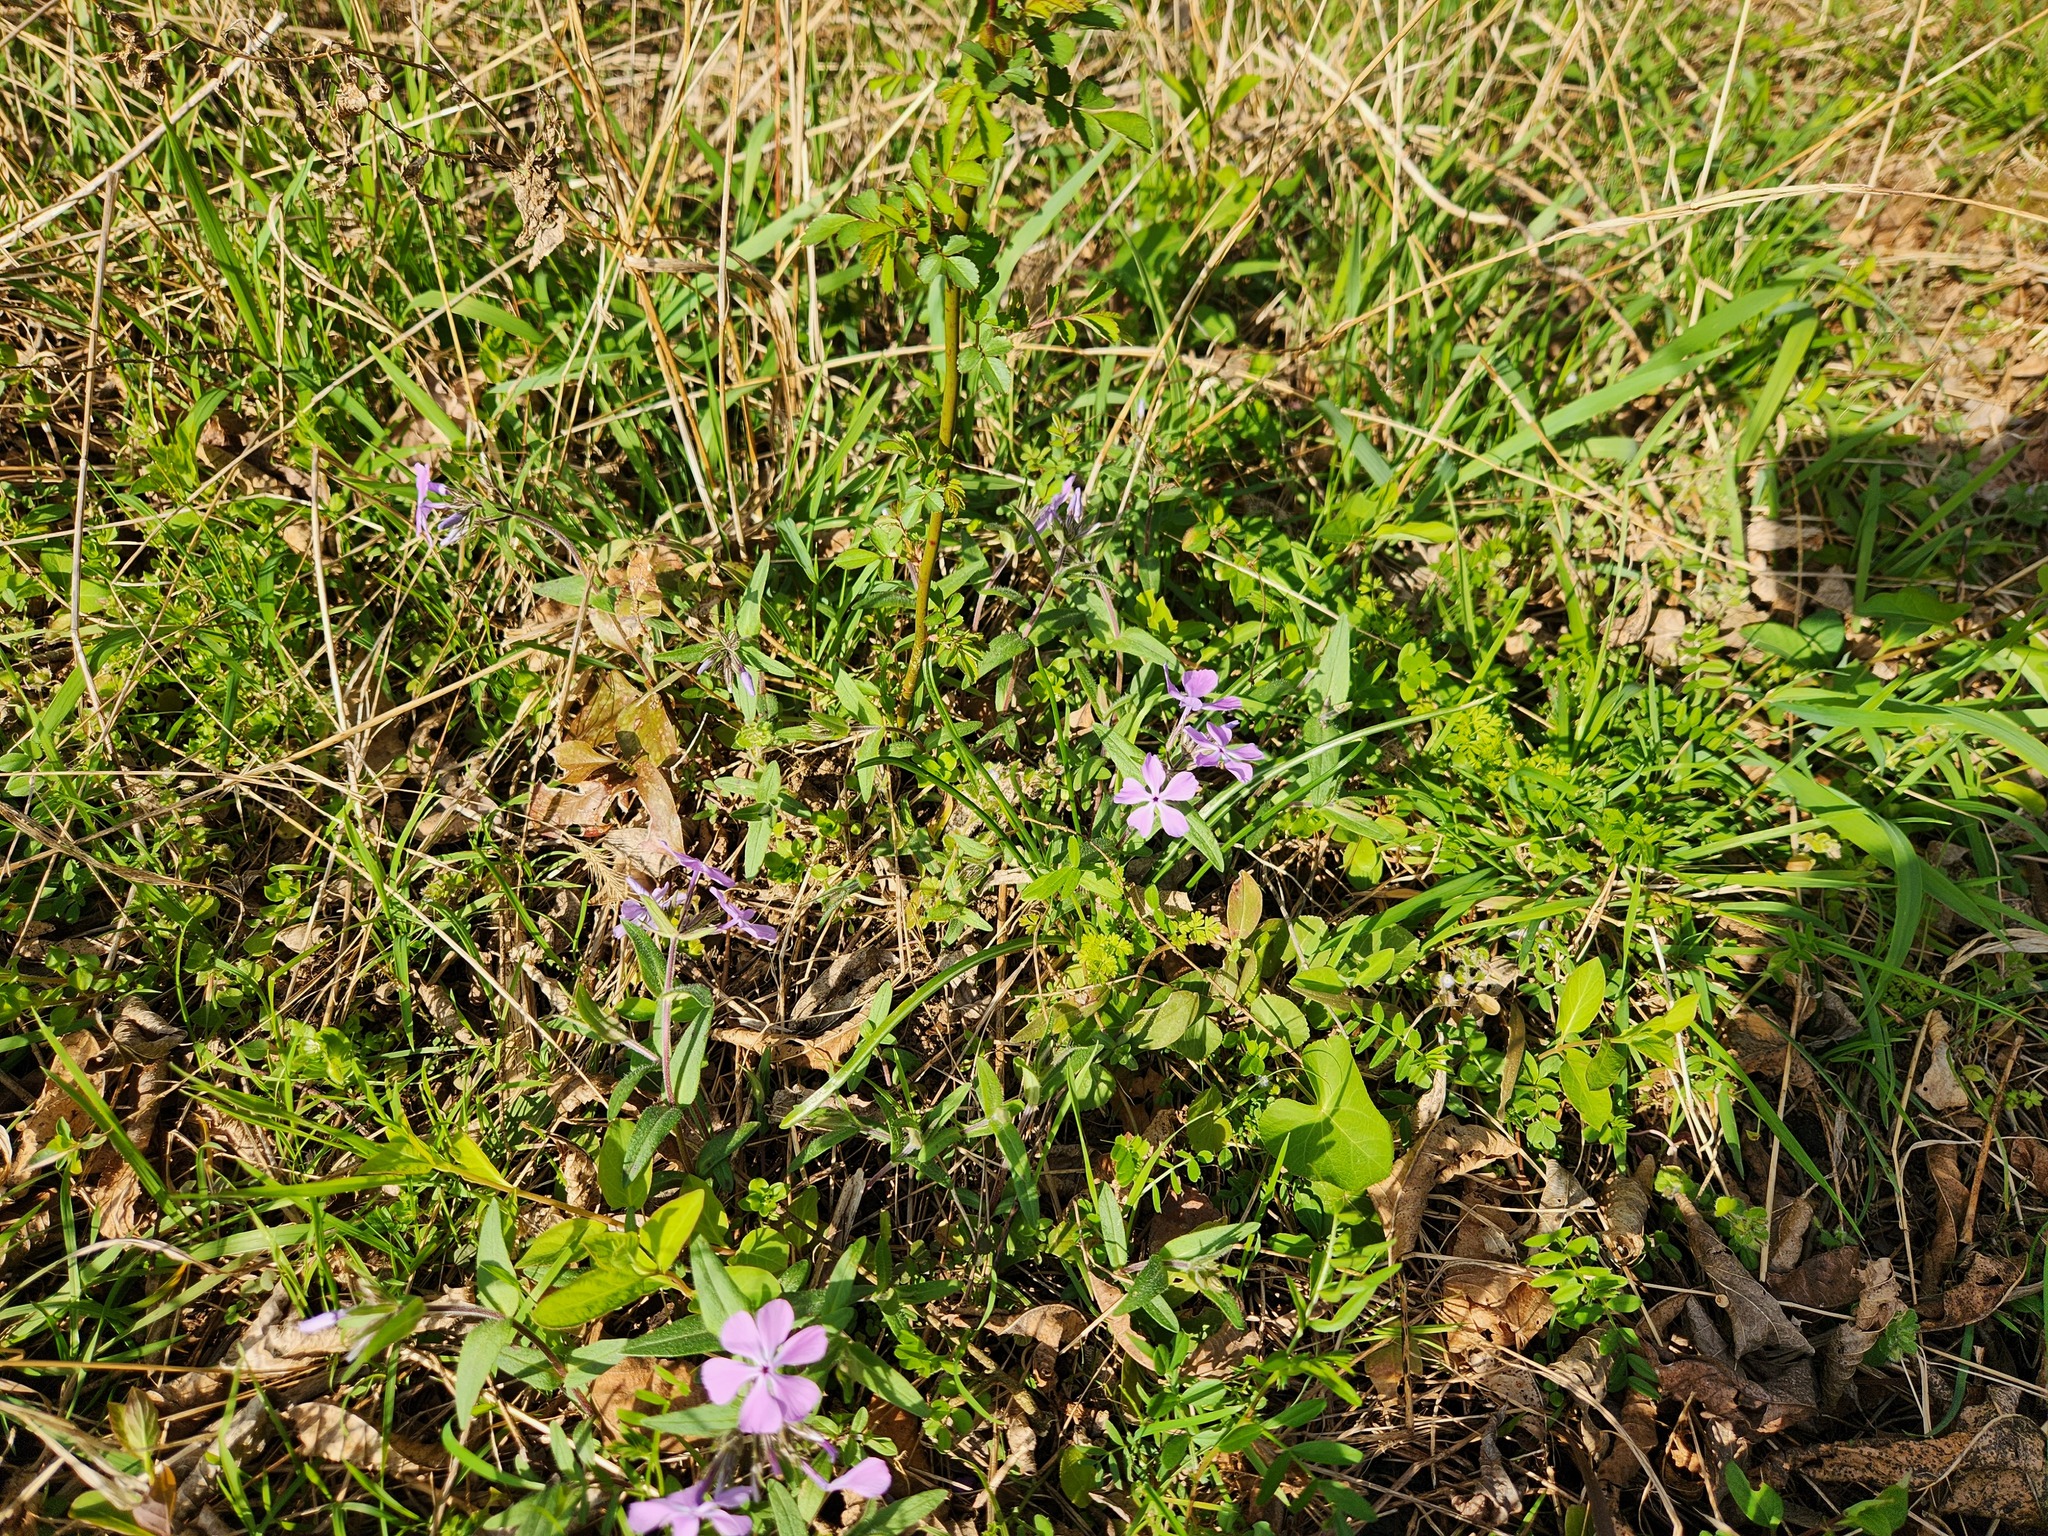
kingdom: Plantae
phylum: Tracheophyta
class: Magnoliopsida
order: Ericales
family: Polemoniaceae
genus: Phlox
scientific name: Phlox divaricata
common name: Blue phlox
